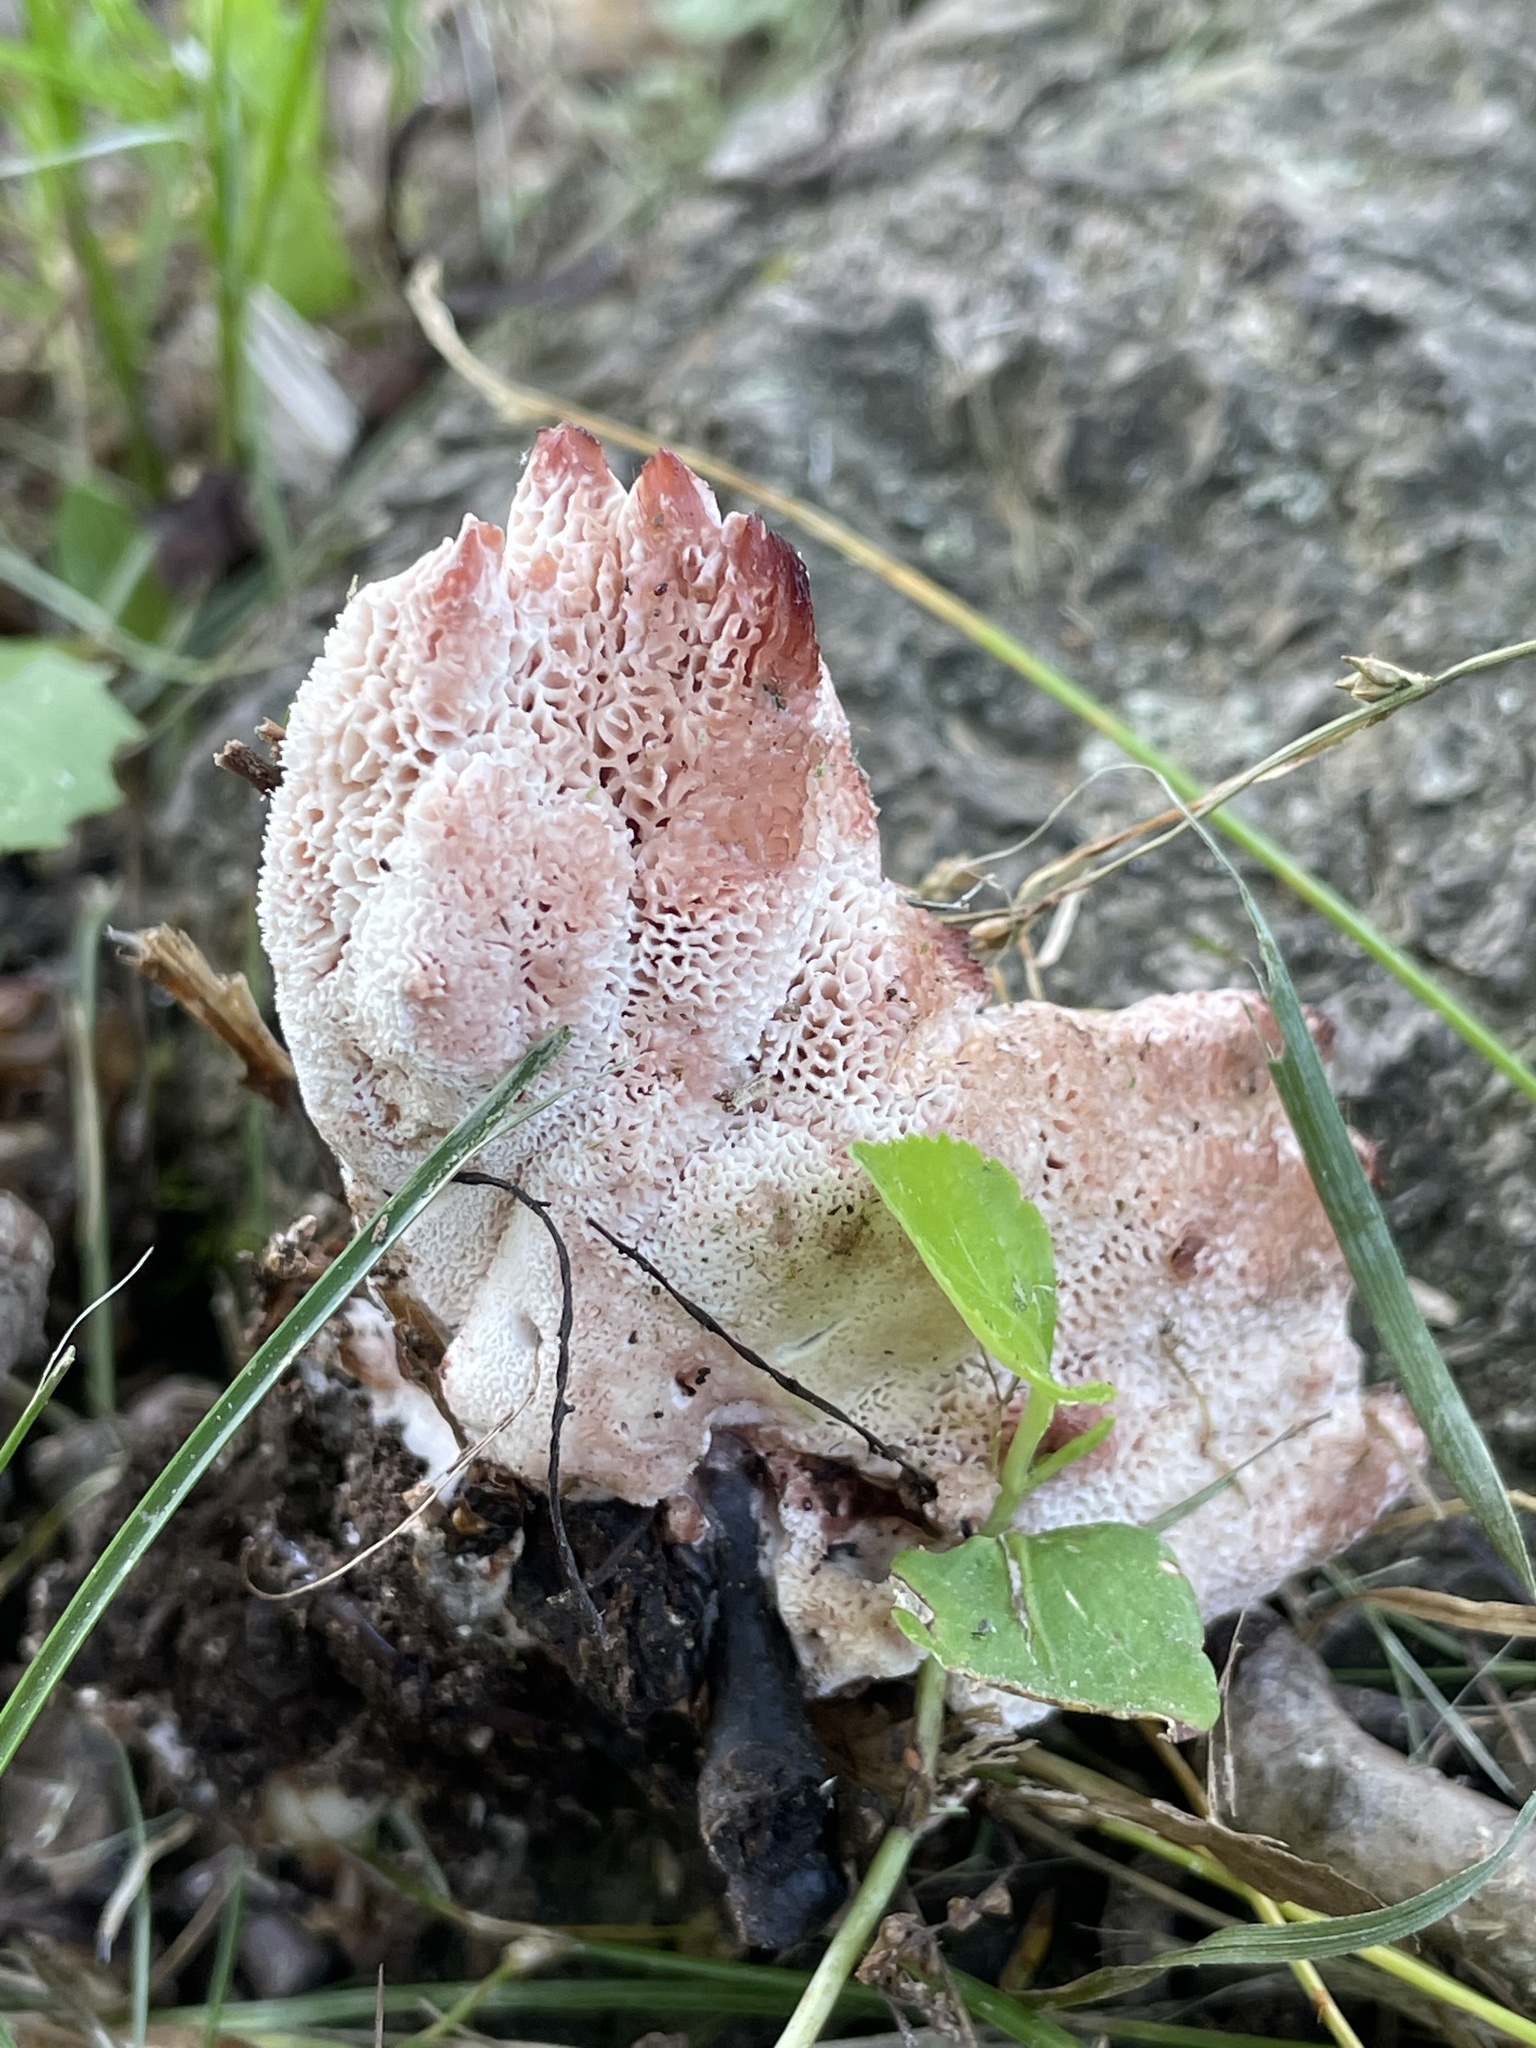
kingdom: Fungi
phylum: Basidiomycota
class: Agaricomycetes
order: Polyporales
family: Podoscyphaceae
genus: Abortiporus
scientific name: Abortiporus biennis
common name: Blushing rosette
